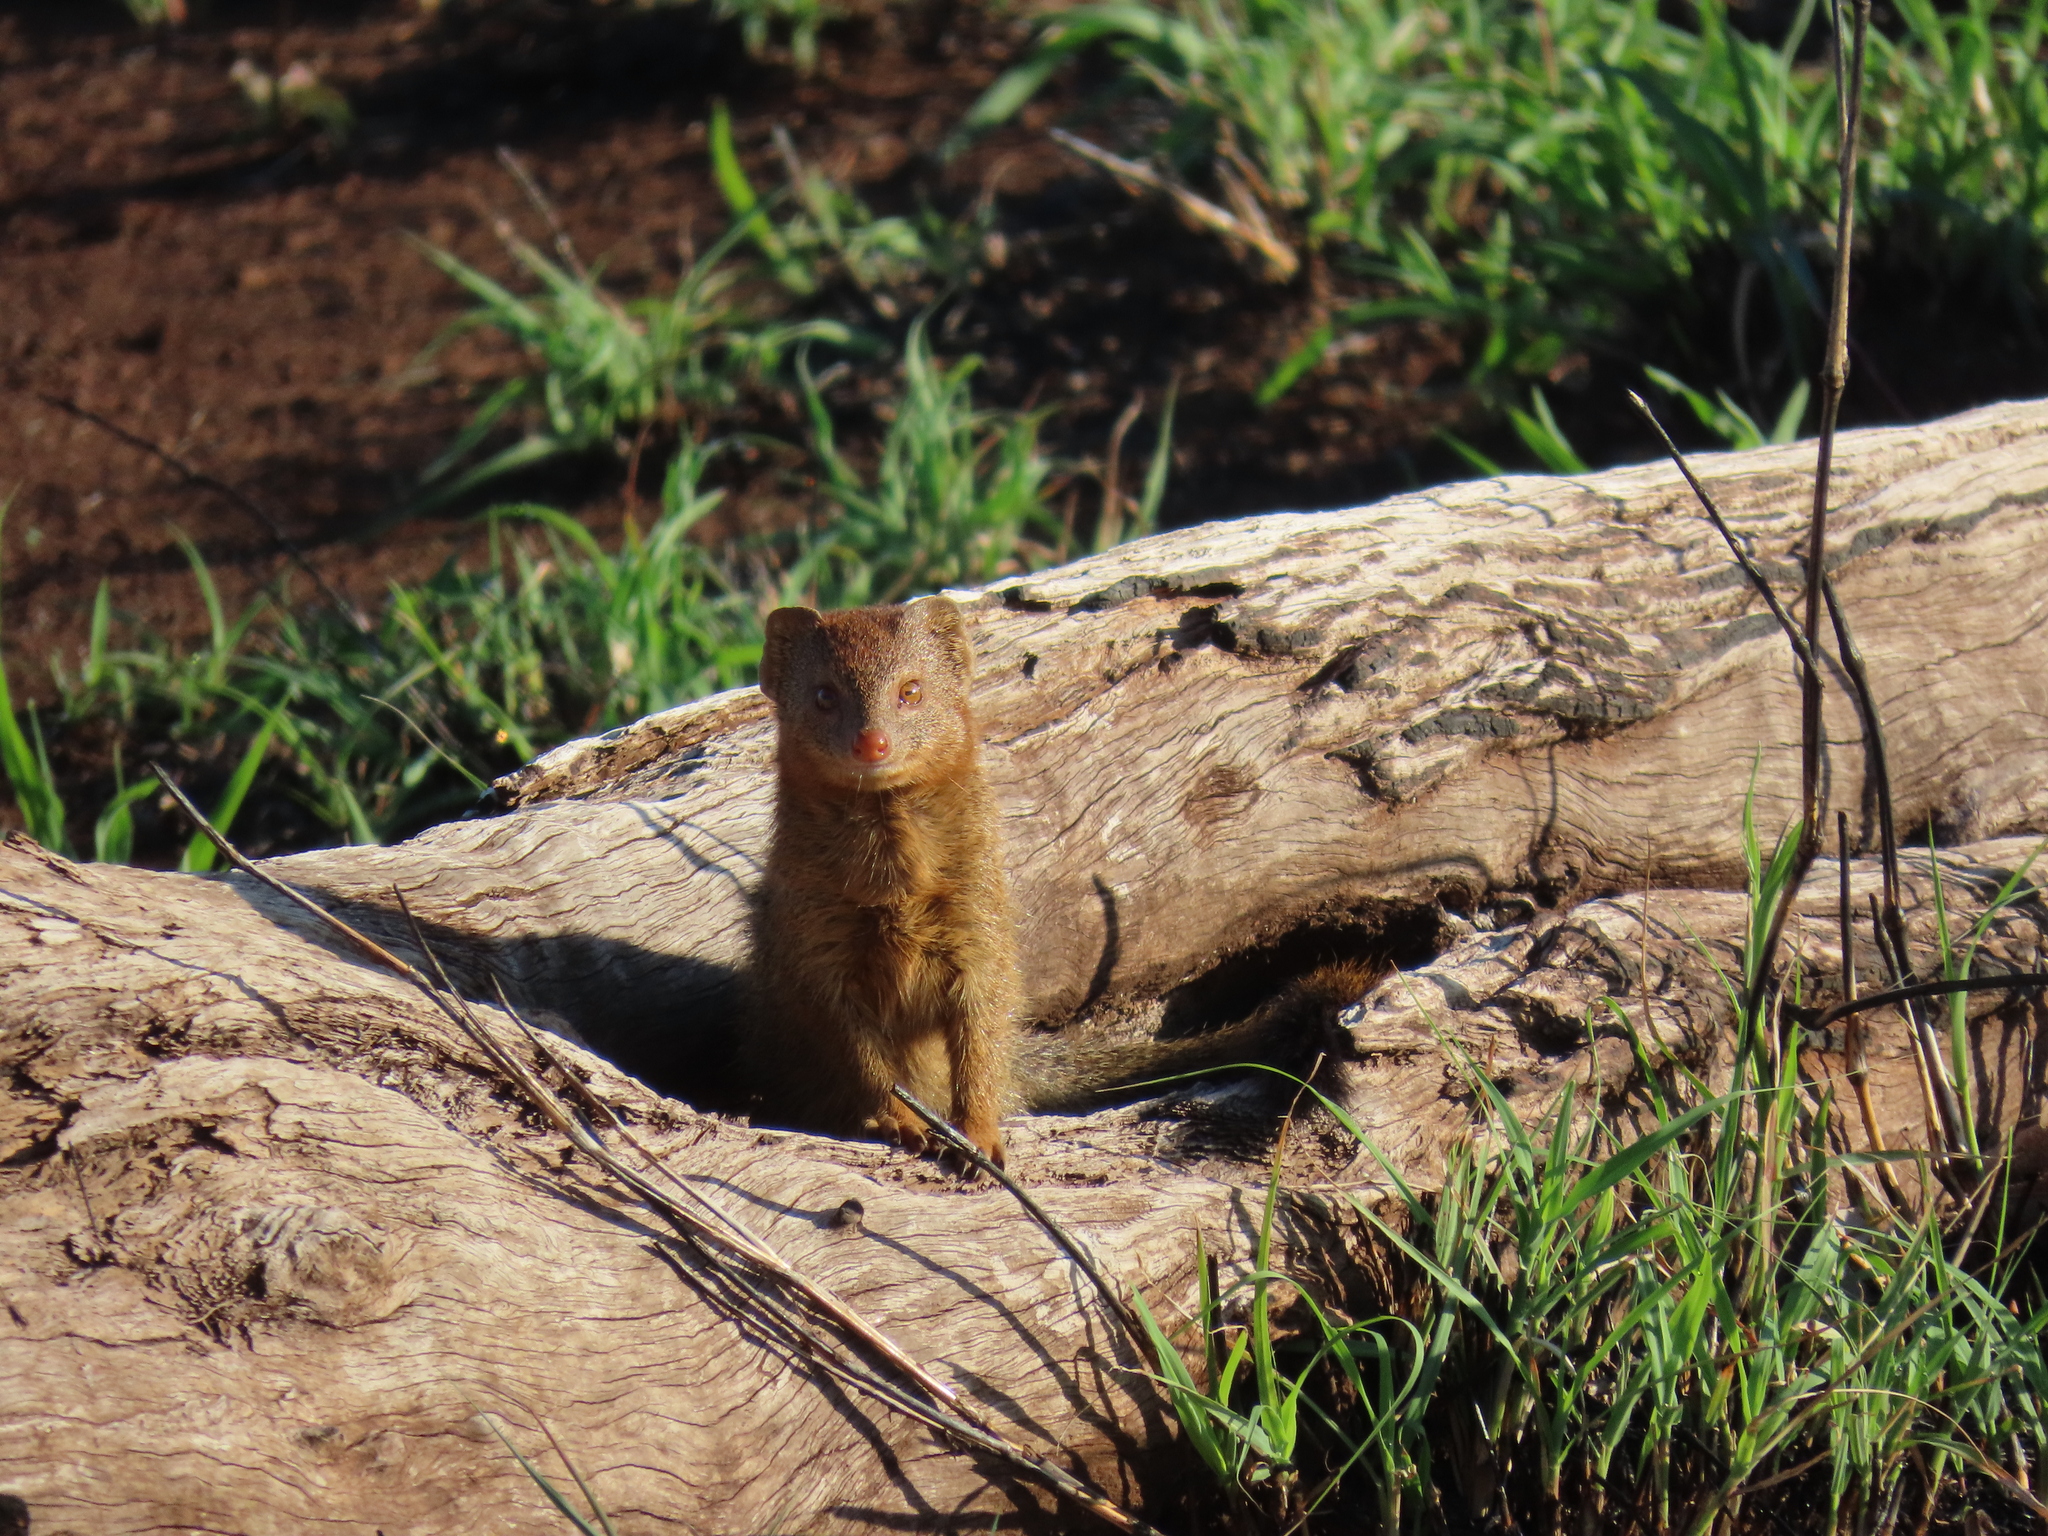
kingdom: Animalia
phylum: Chordata
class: Mammalia
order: Carnivora
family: Herpestidae
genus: Helogale
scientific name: Helogale parvula
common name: Common dwarf mongoose
